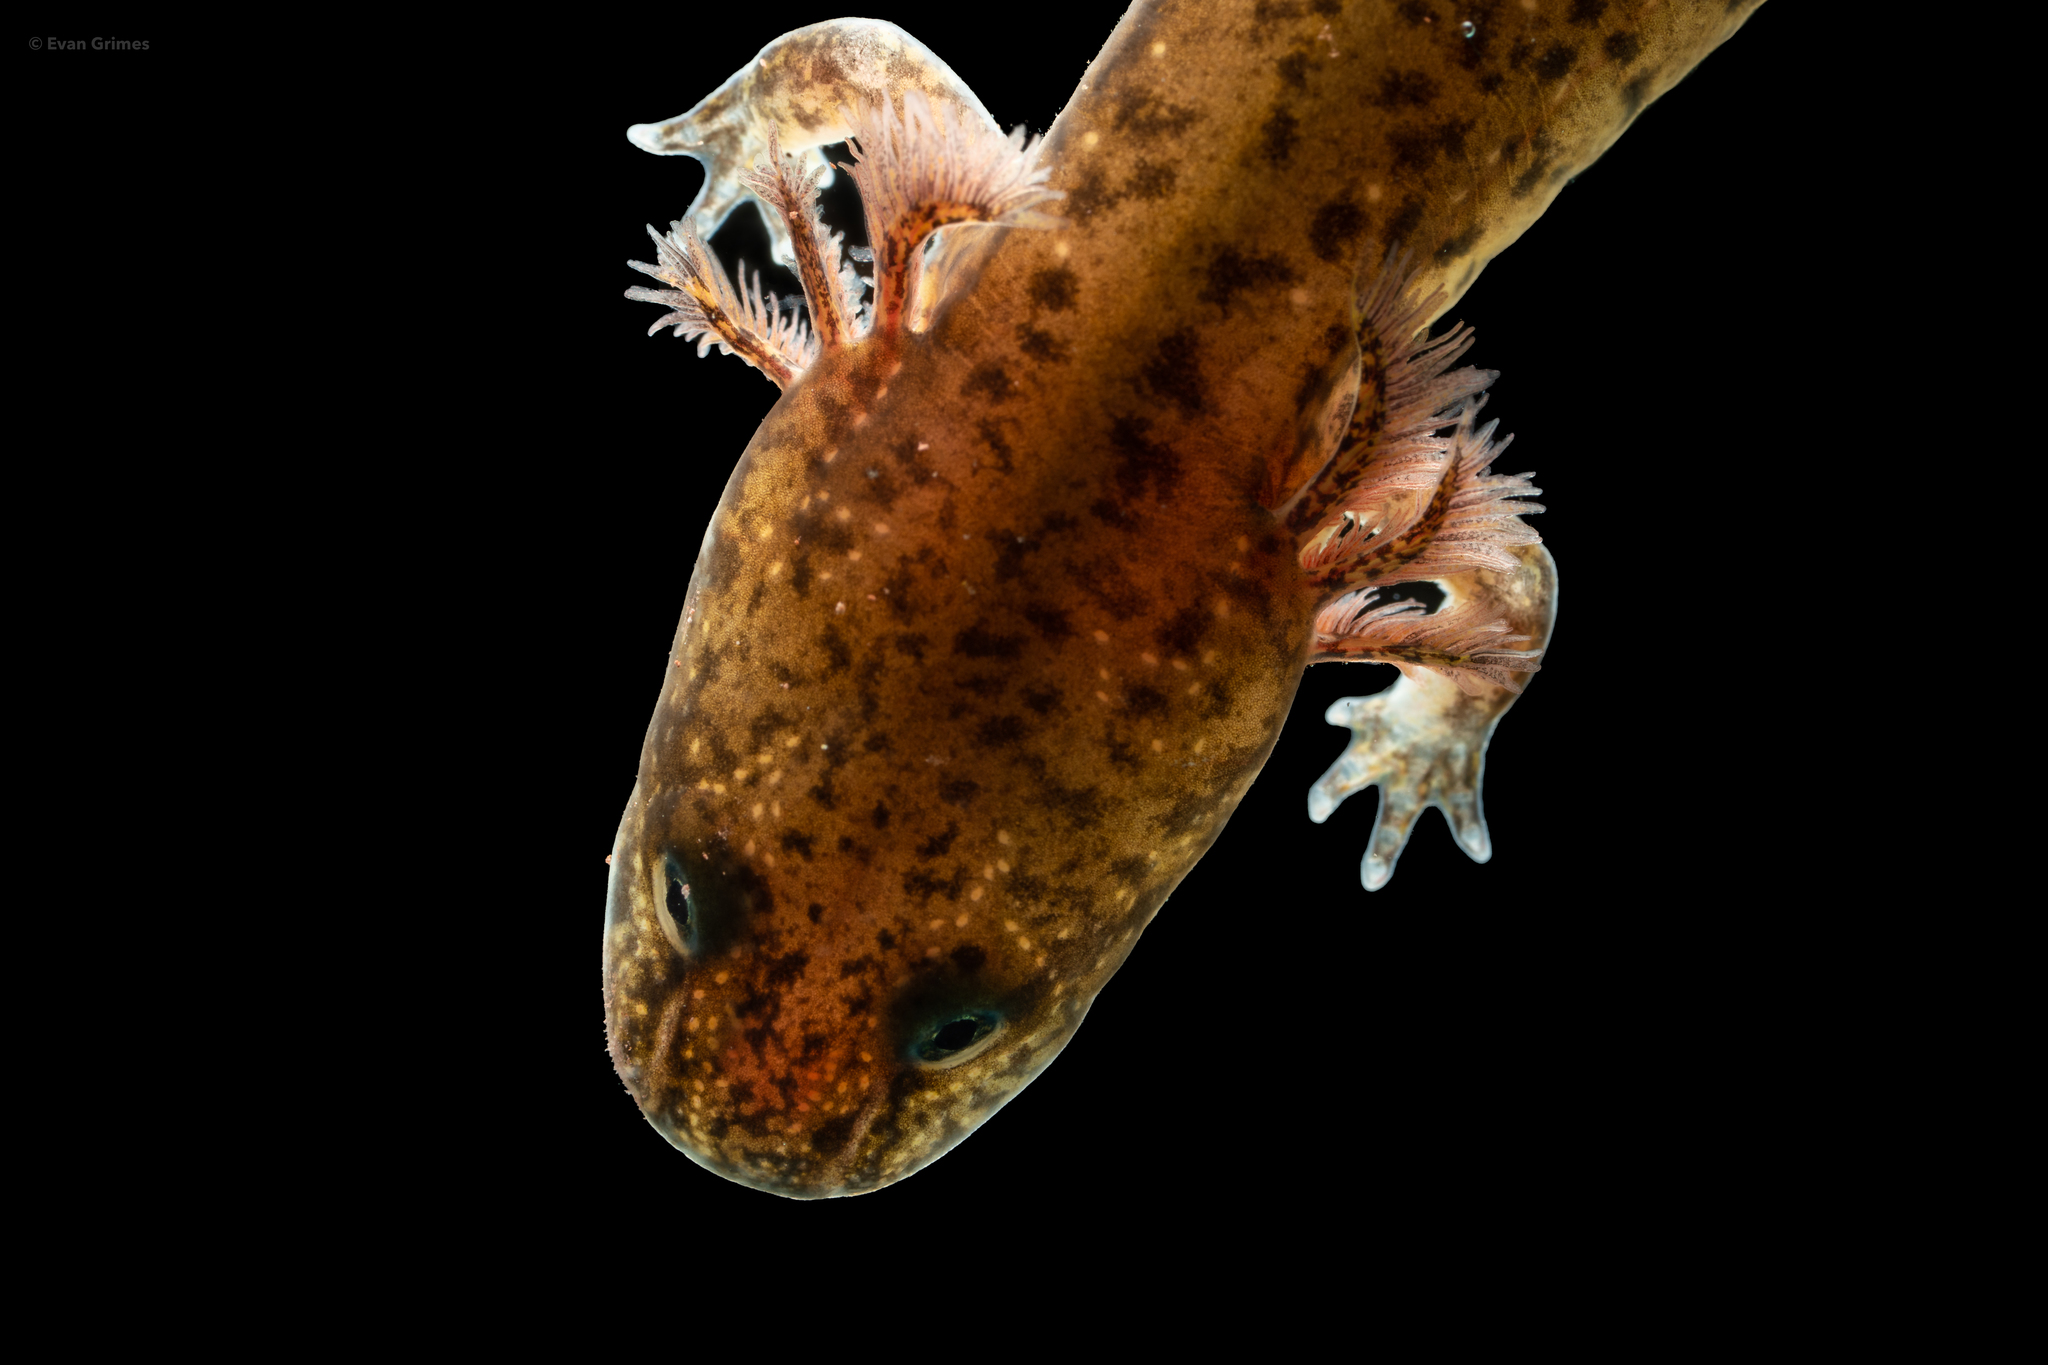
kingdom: Animalia
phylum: Chordata
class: Amphibia
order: Caudata
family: Plethodontidae
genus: Pseudotriton
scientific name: Pseudotriton ruber
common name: Red salamander
